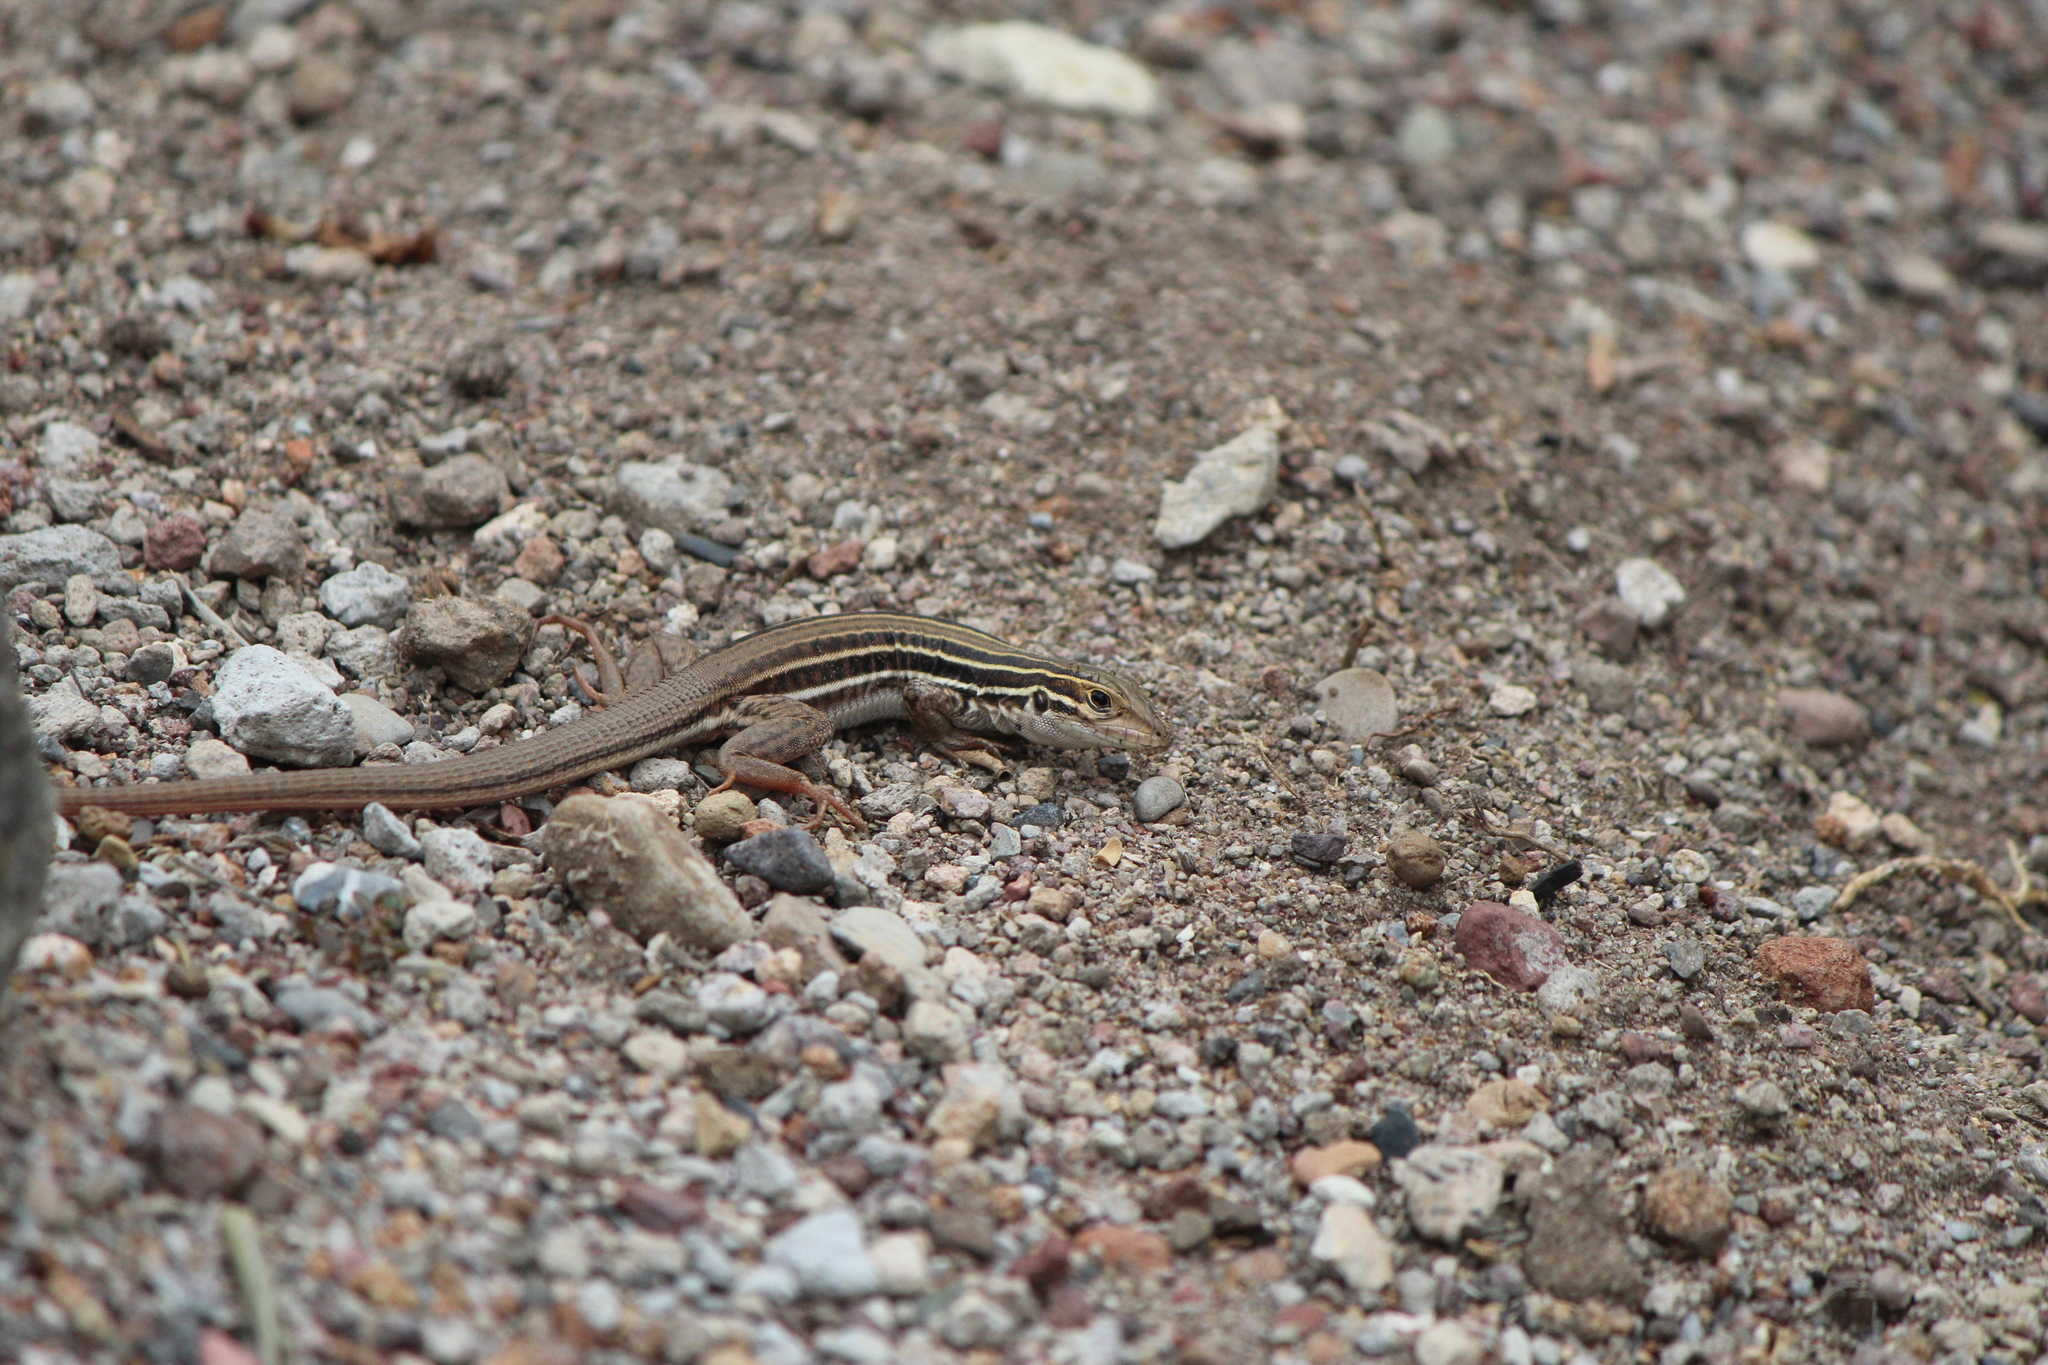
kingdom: Animalia
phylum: Chordata
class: Squamata
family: Teiidae
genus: Aspidoscelis
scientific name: Aspidoscelis gularis
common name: Eastern spotted whiptail
